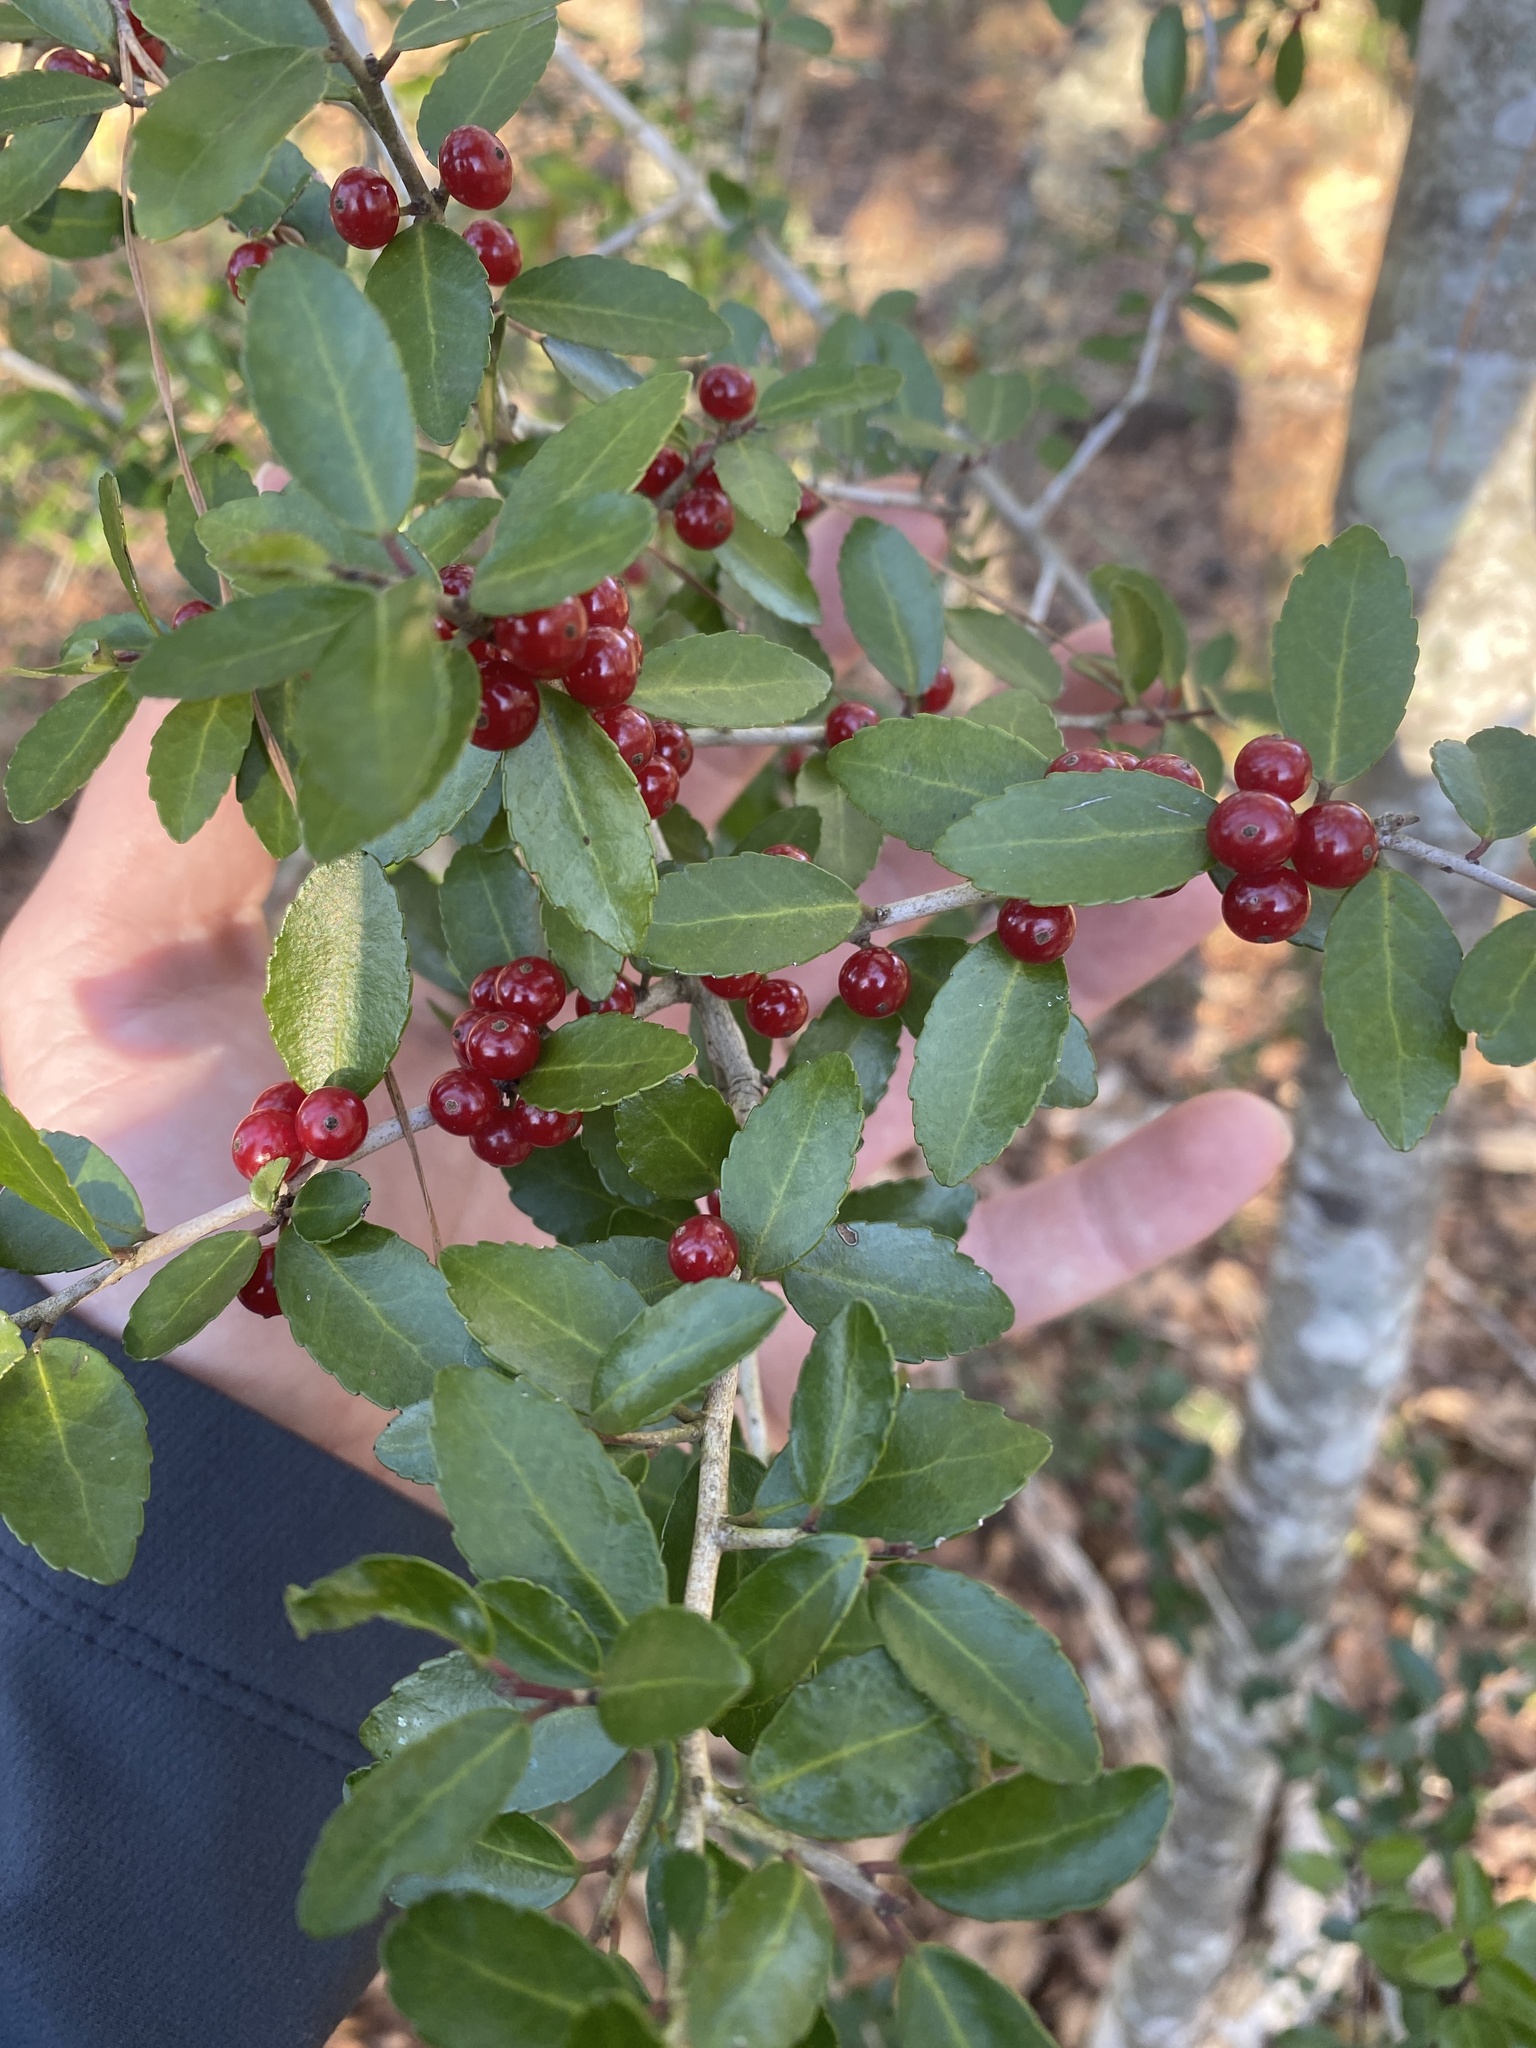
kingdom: Plantae
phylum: Tracheophyta
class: Magnoliopsida
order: Aquifoliales
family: Aquifoliaceae
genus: Ilex
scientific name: Ilex vomitoria
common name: Yaupon holly
